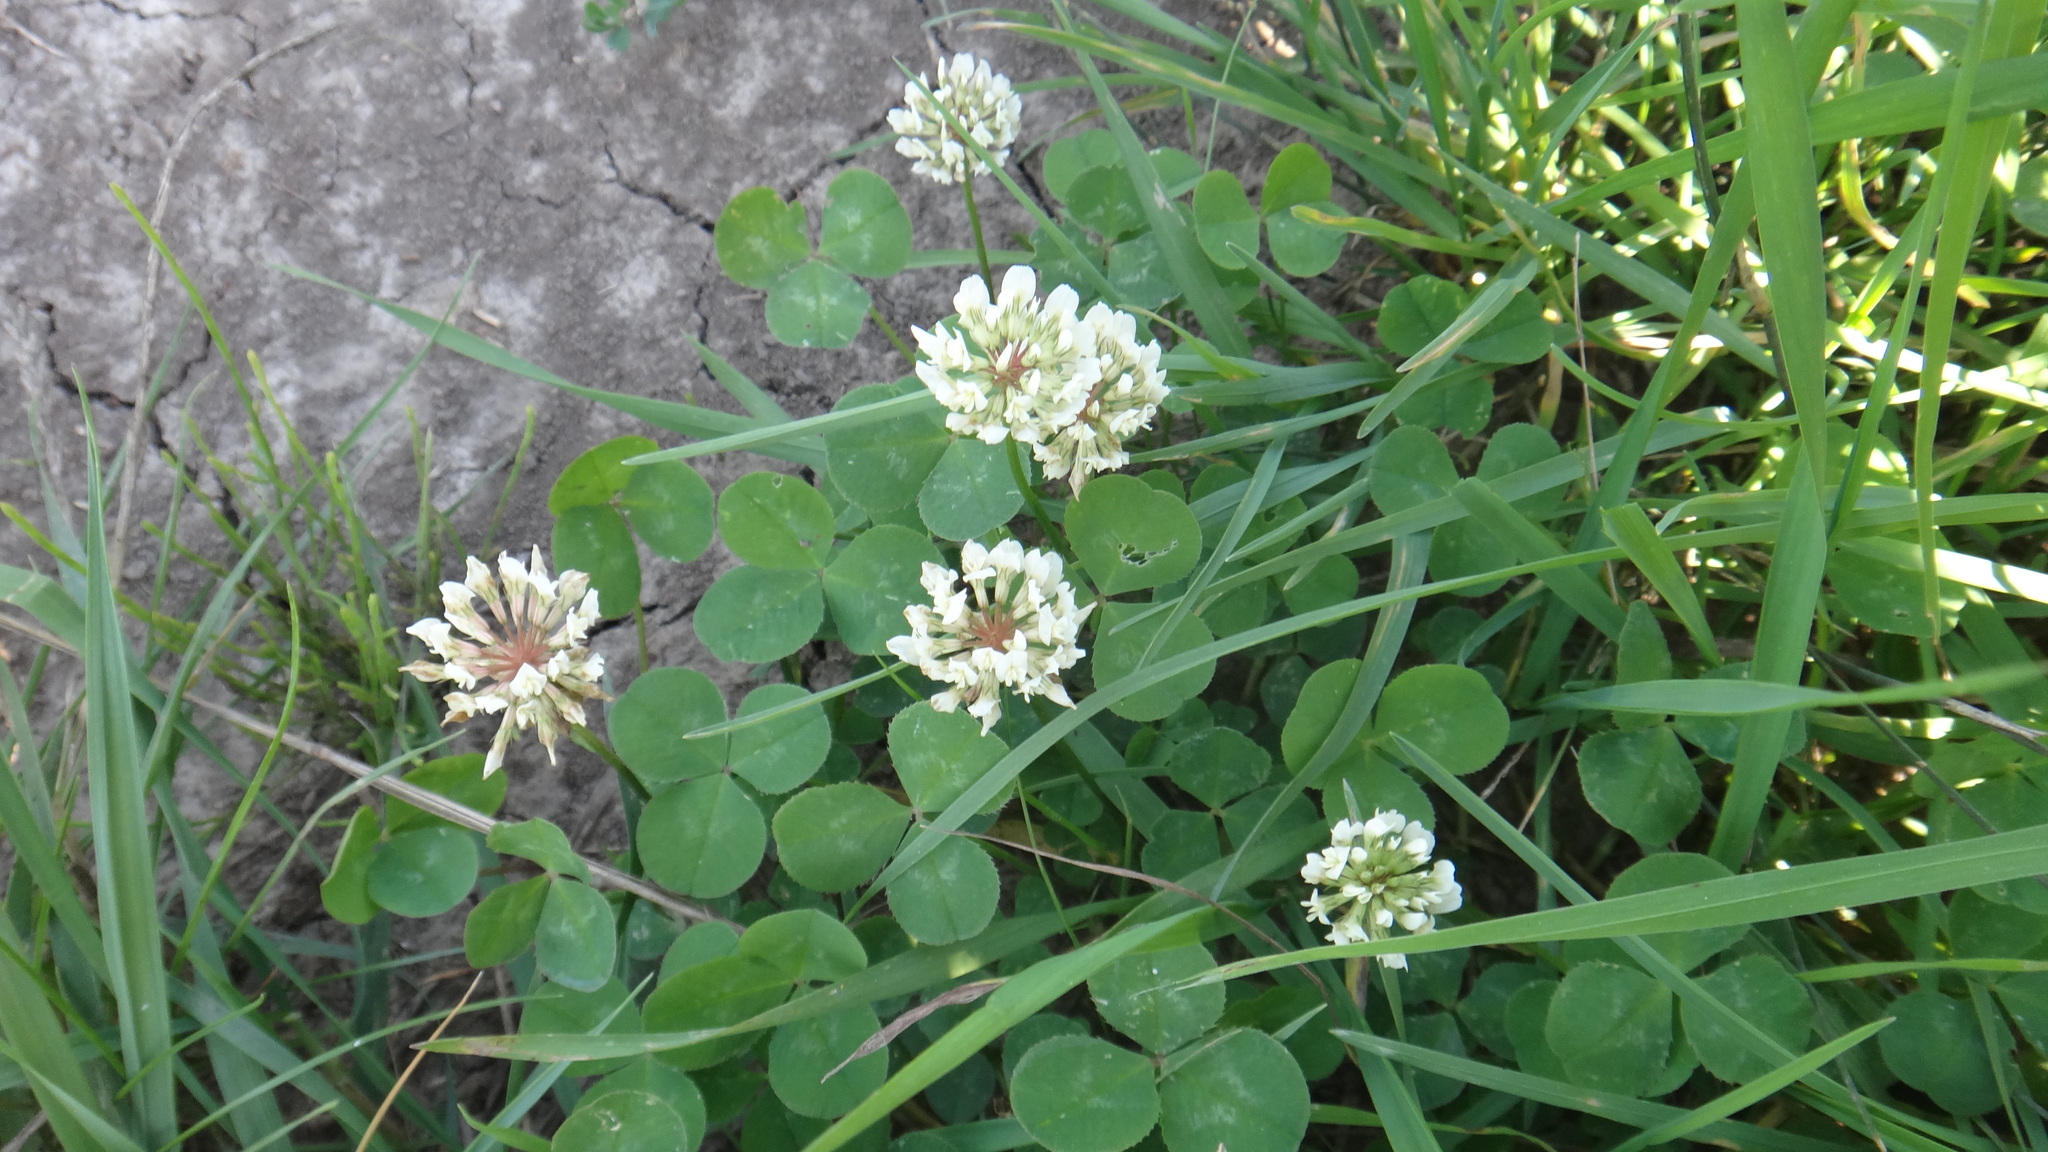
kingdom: Plantae
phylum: Tracheophyta
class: Magnoliopsida
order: Fabales
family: Fabaceae
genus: Trifolium
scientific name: Trifolium repens
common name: White clover
